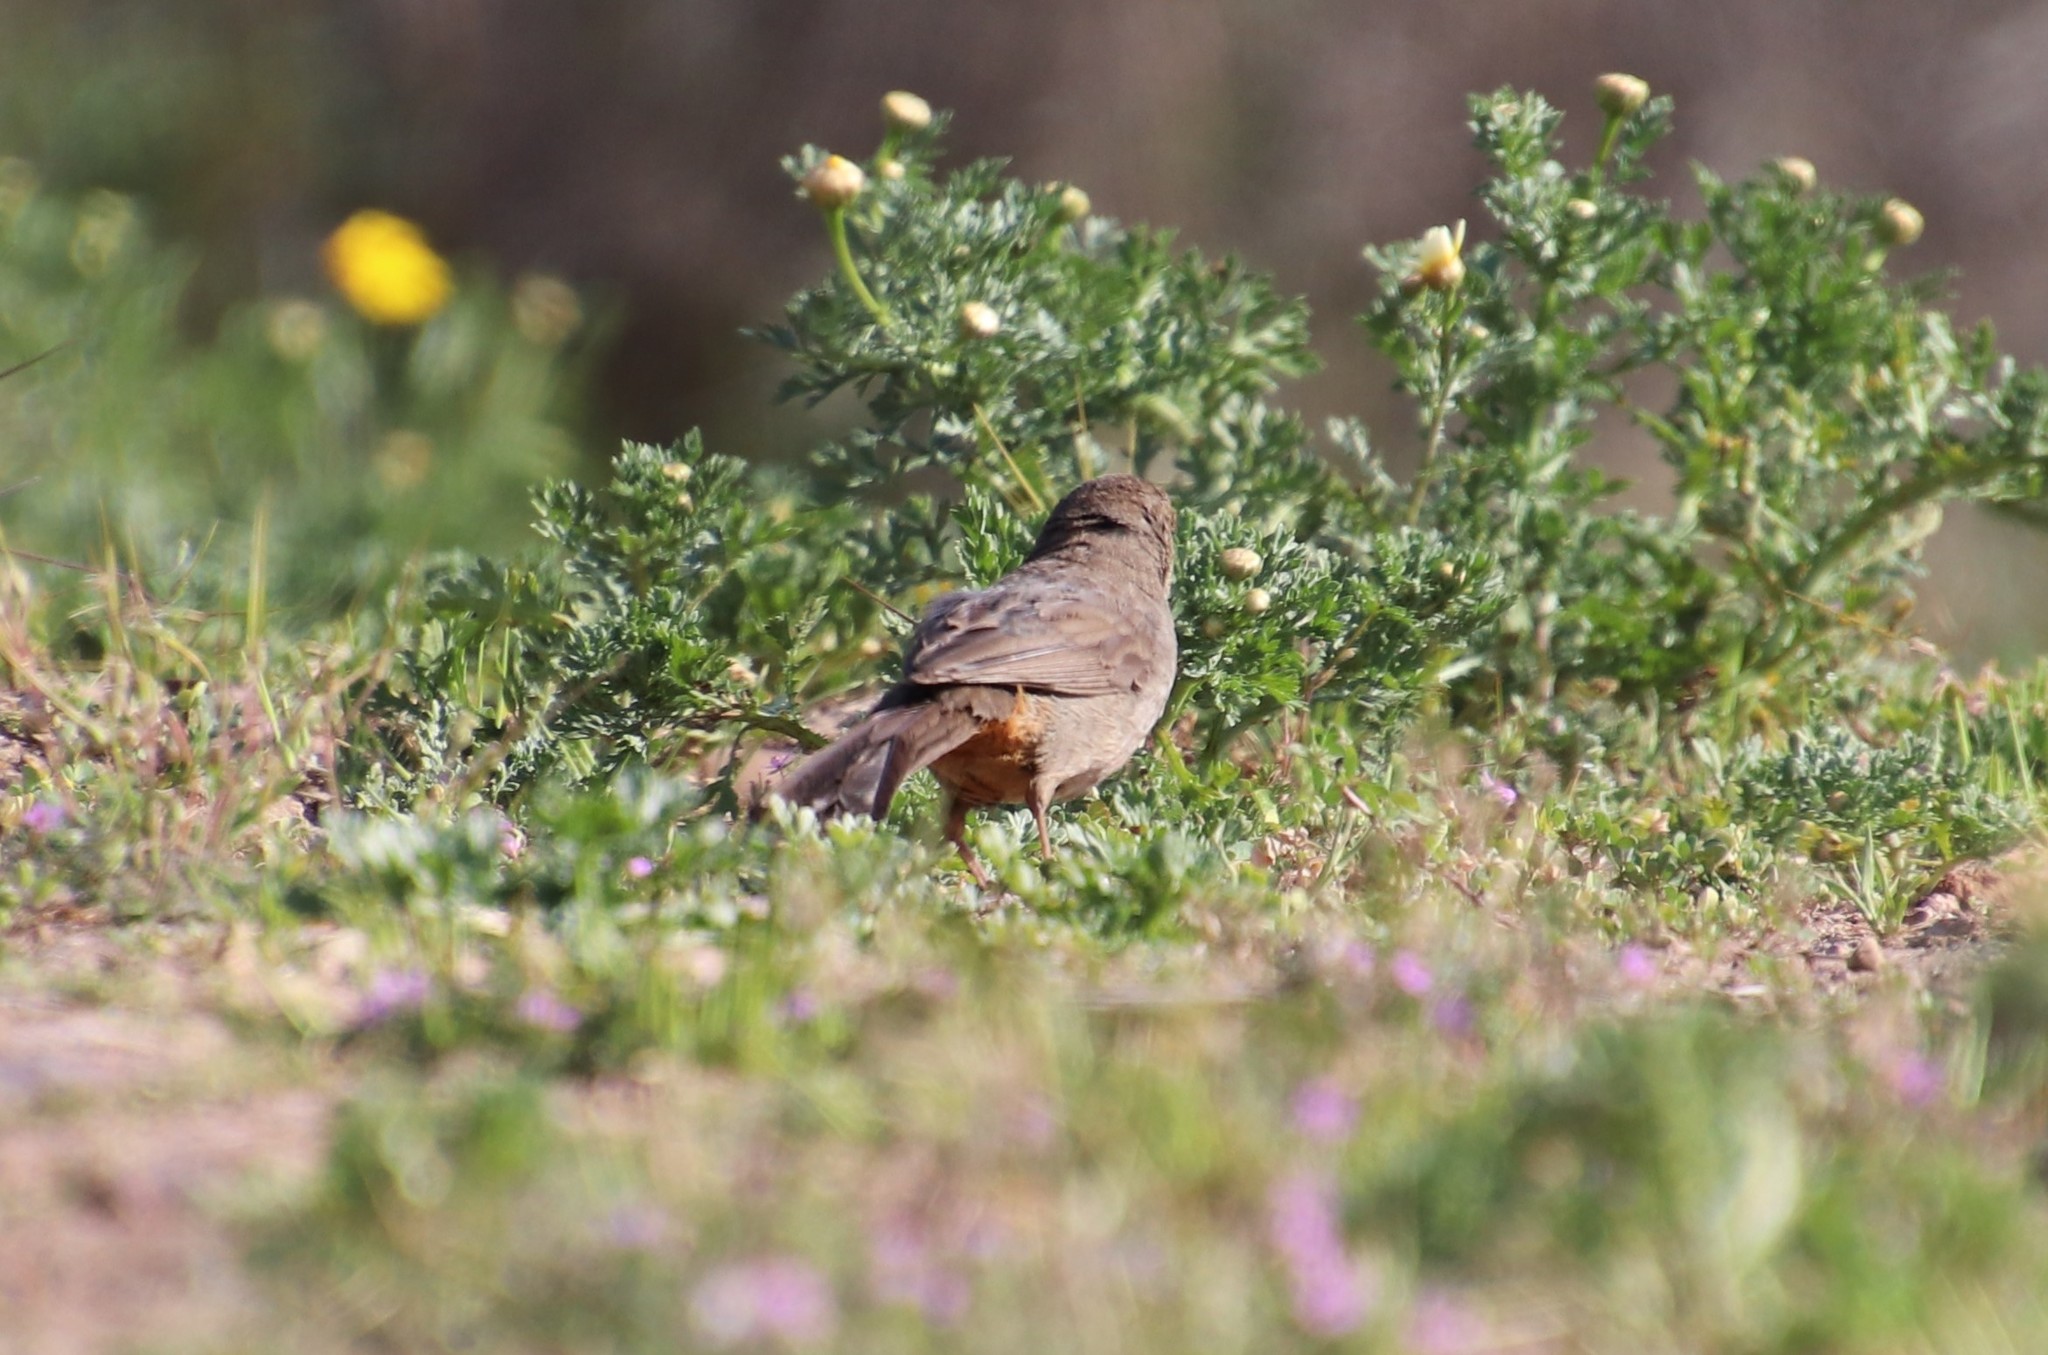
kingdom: Animalia
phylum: Chordata
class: Aves
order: Passeriformes
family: Passerellidae
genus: Melozone
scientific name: Melozone crissalis
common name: California towhee
